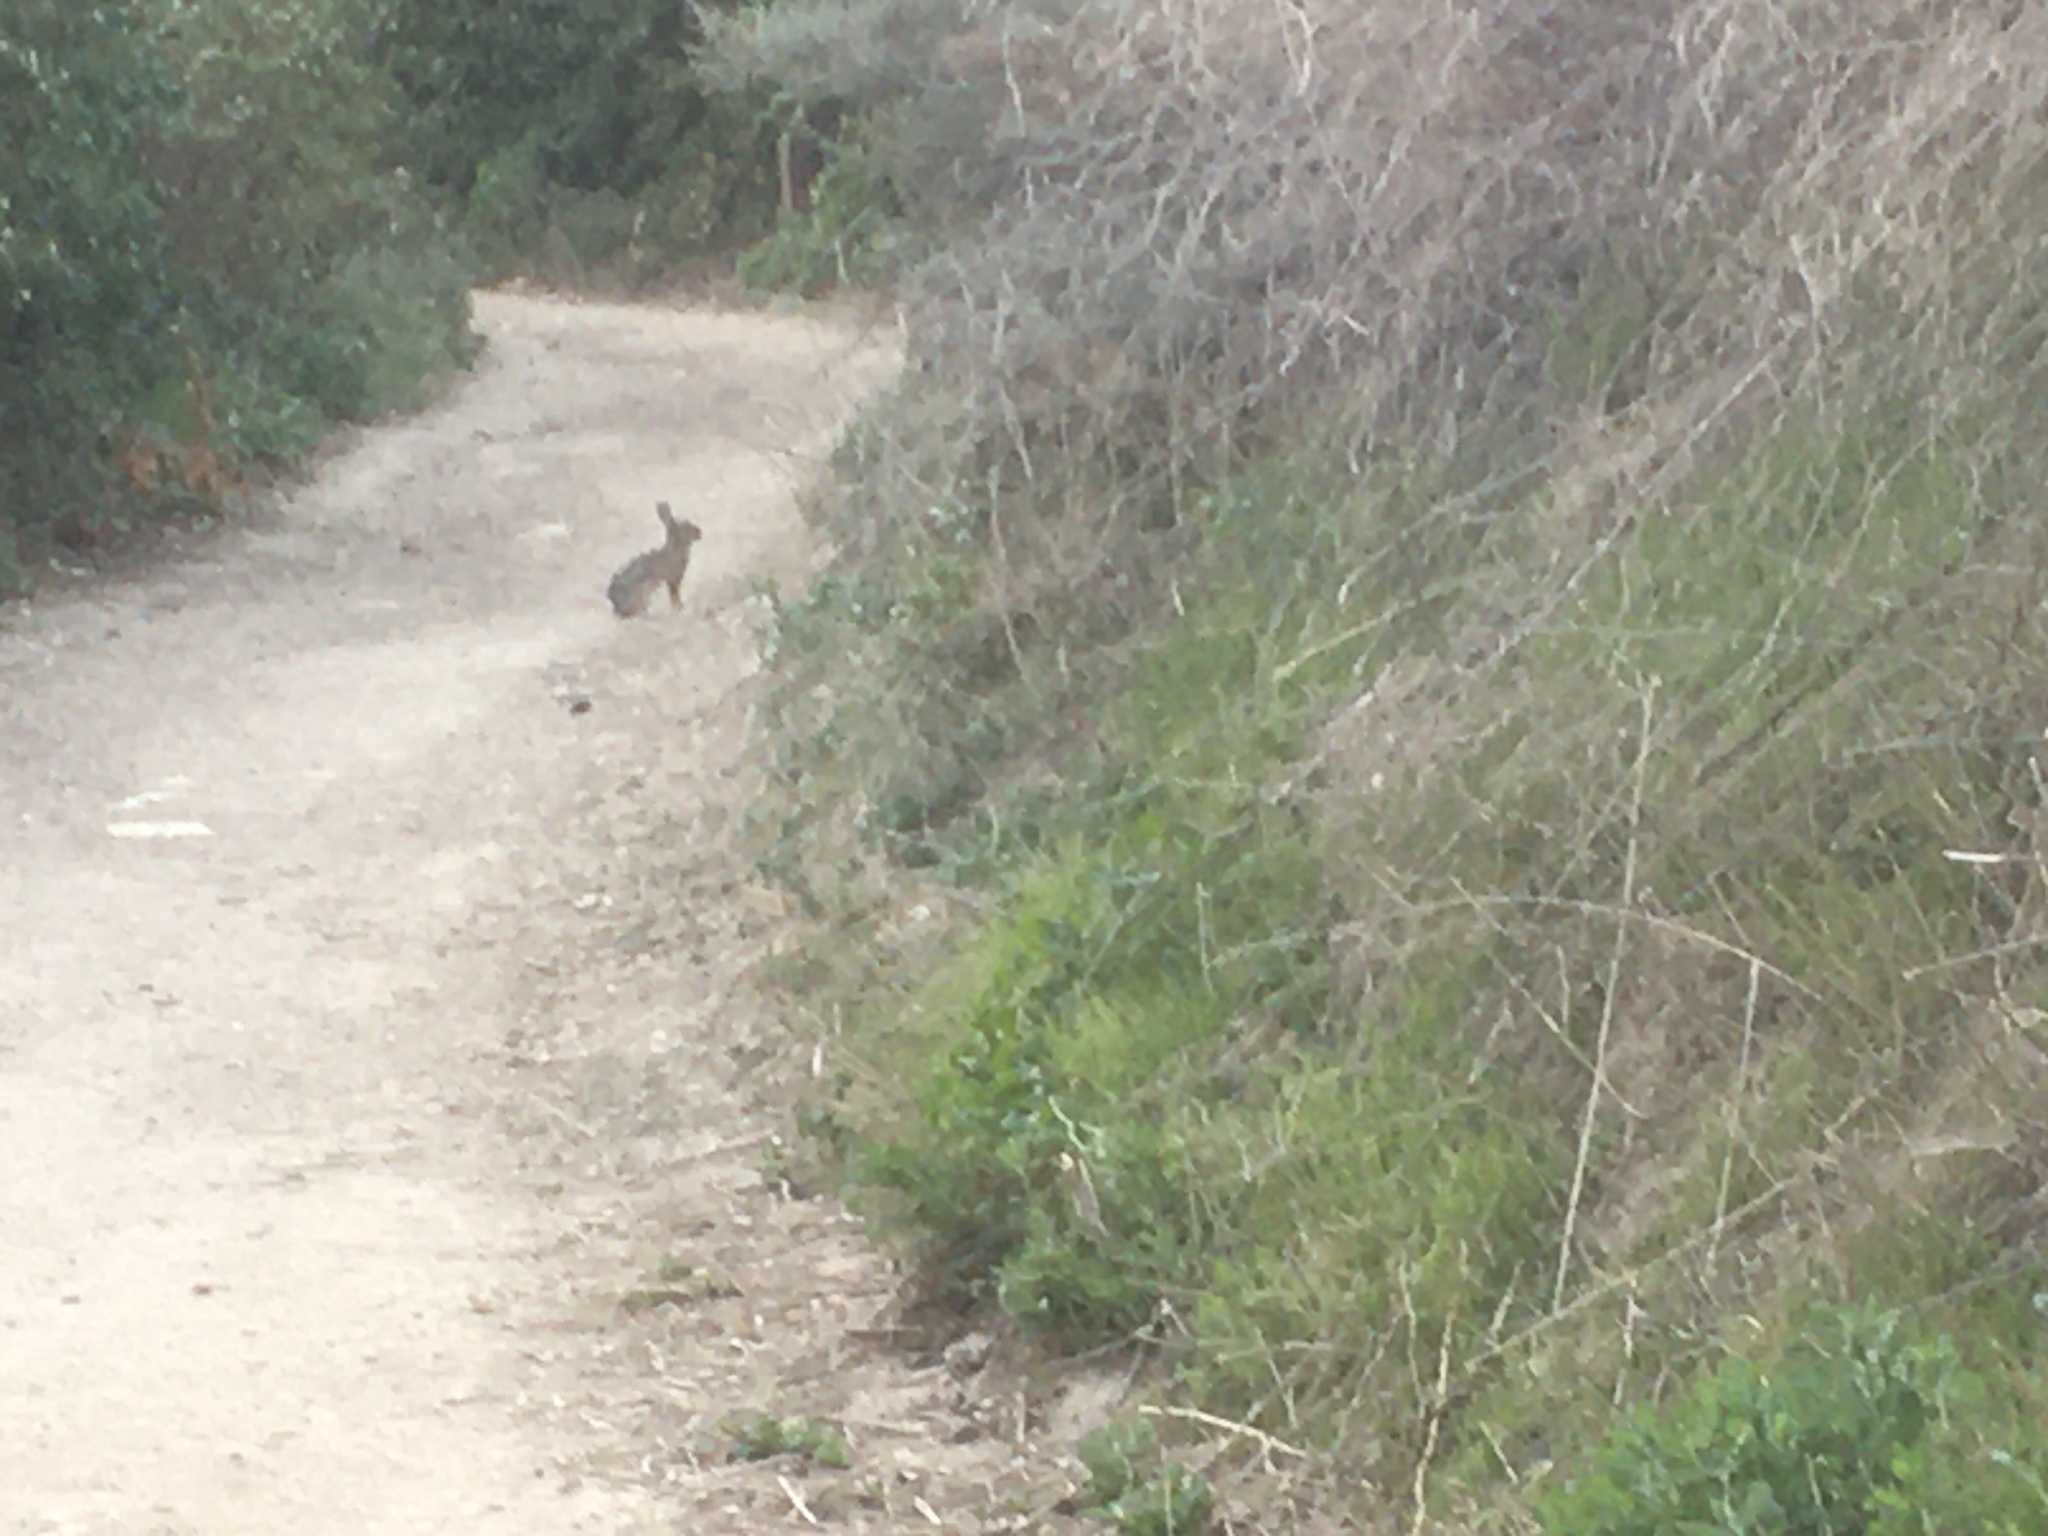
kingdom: Animalia
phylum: Chordata
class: Mammalia
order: Lagomorpha
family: Leporidae
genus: Sylvilagus
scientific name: Sylvilagus audubonii
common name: Desert cottontail
